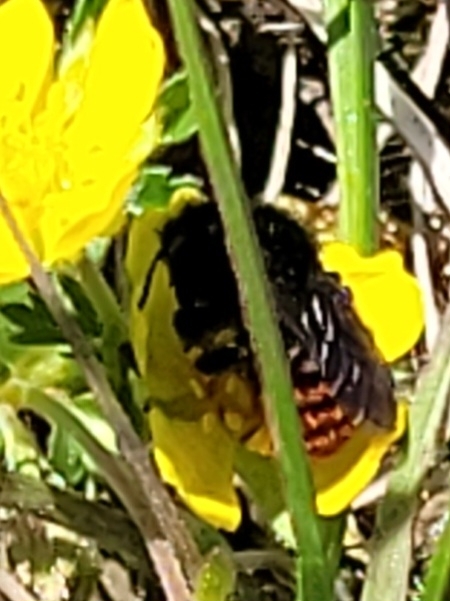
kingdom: Animalia
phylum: Arthropoda
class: Insecta
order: Hymenoptera
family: Megachilidae
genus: Osmia
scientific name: Osmia bicolor
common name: Red-tailed mason bee
